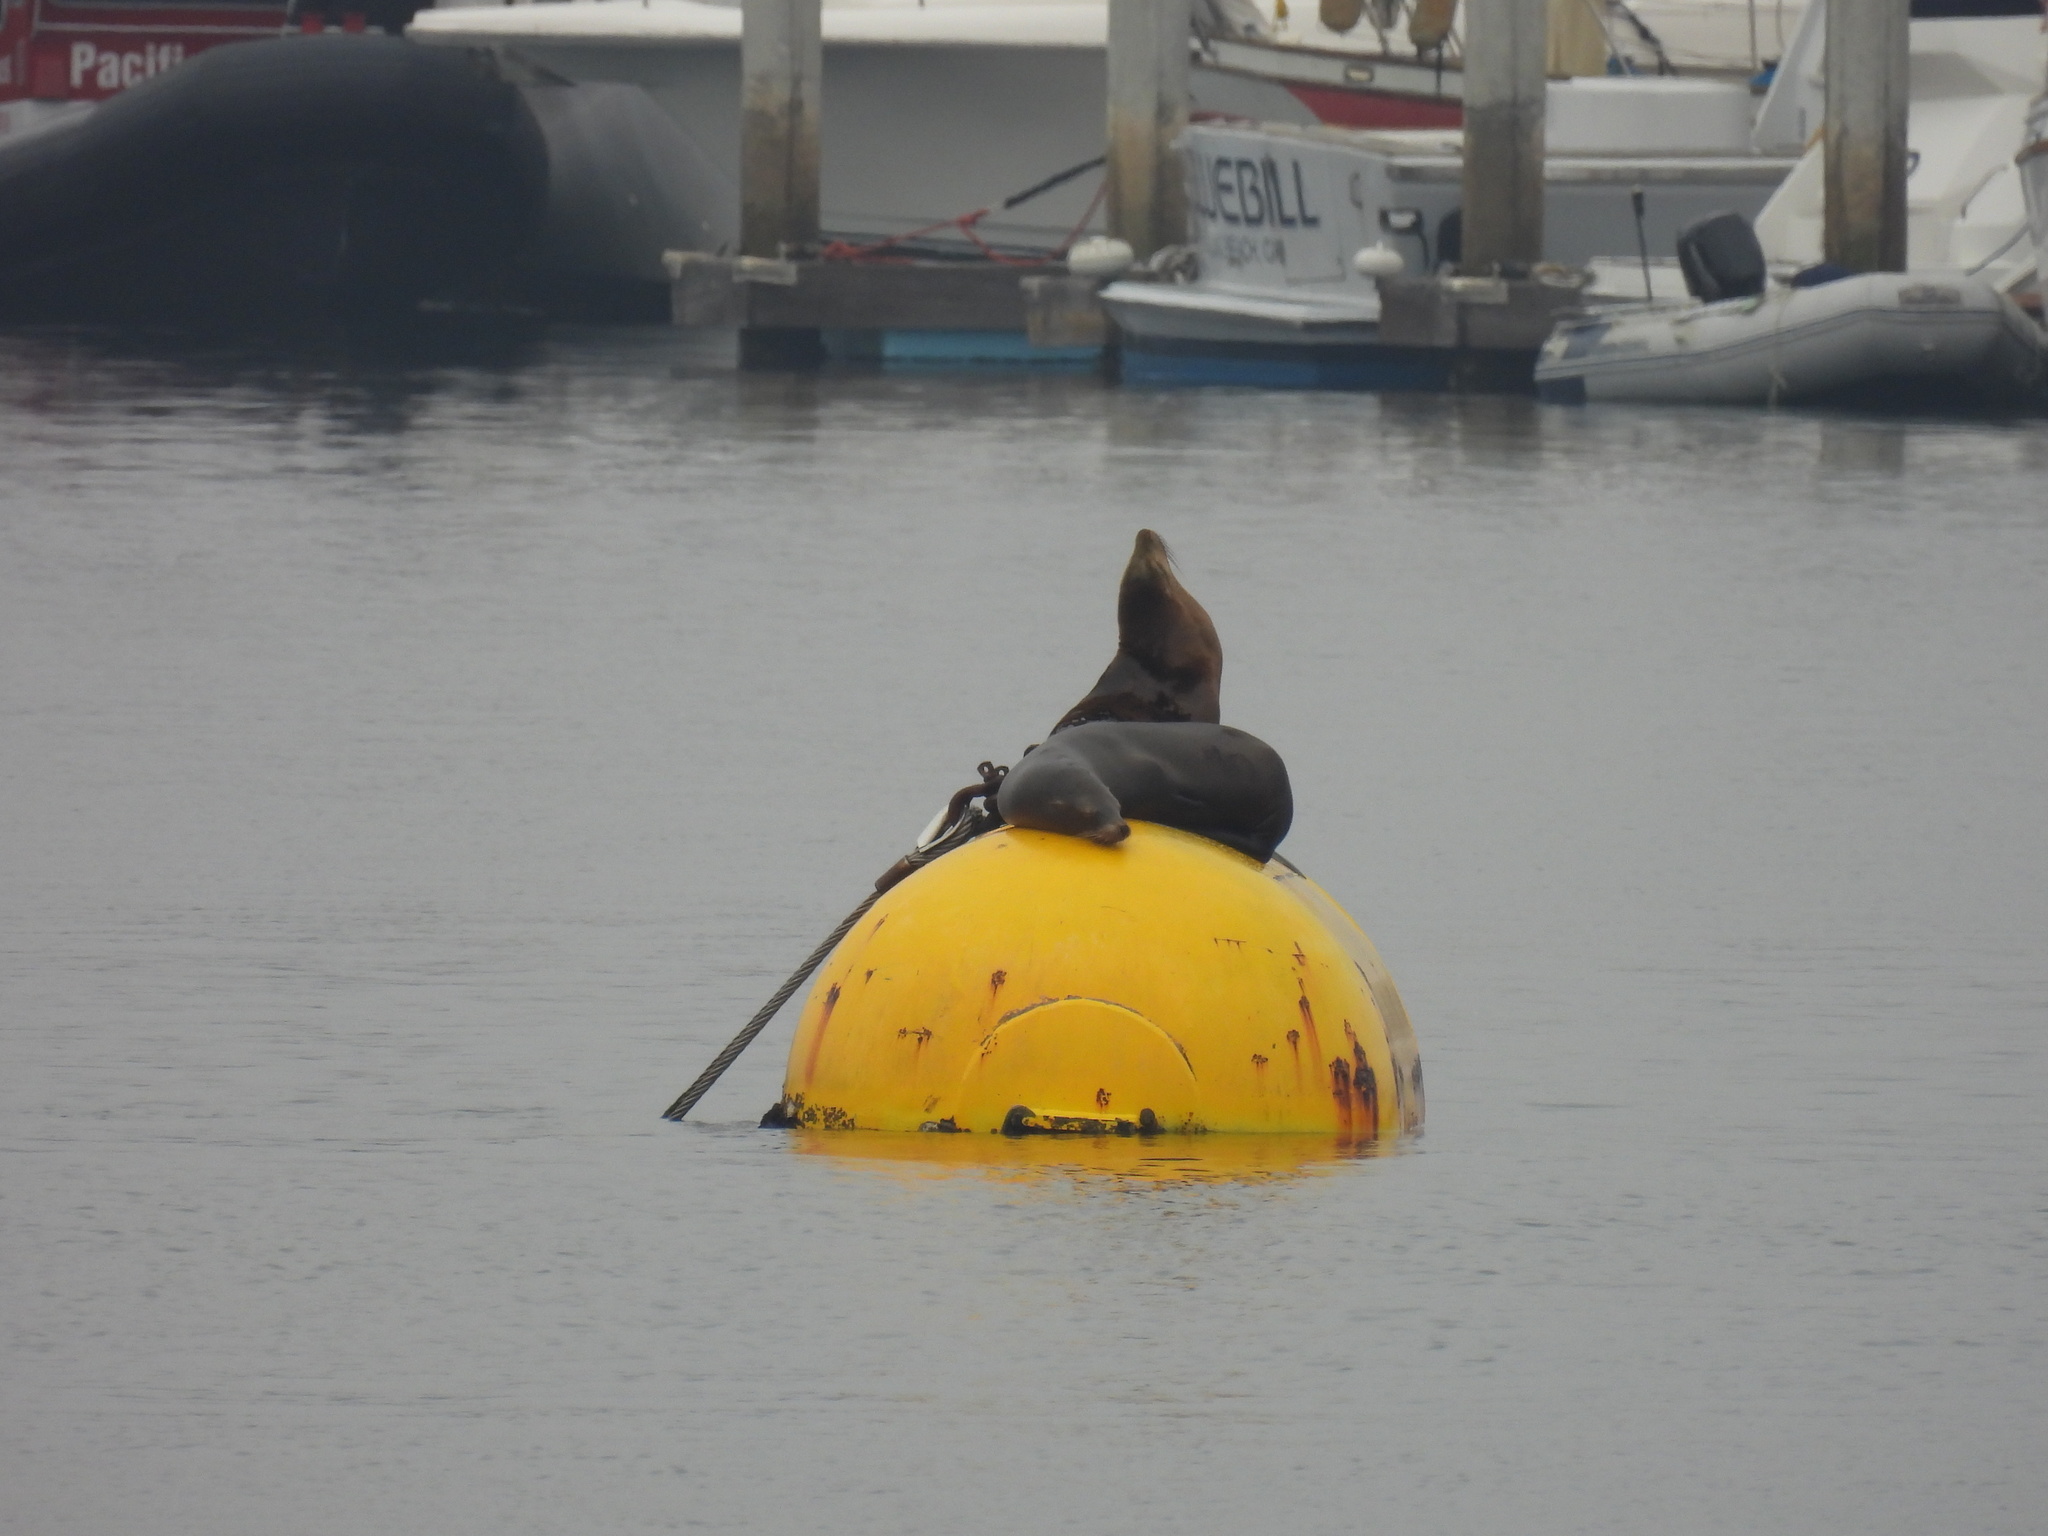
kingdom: Animalia
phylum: Chordata
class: Mammalia
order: Carnivora
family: Otariidae
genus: Zalophus
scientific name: Zalophus californianus
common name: California sea lion
